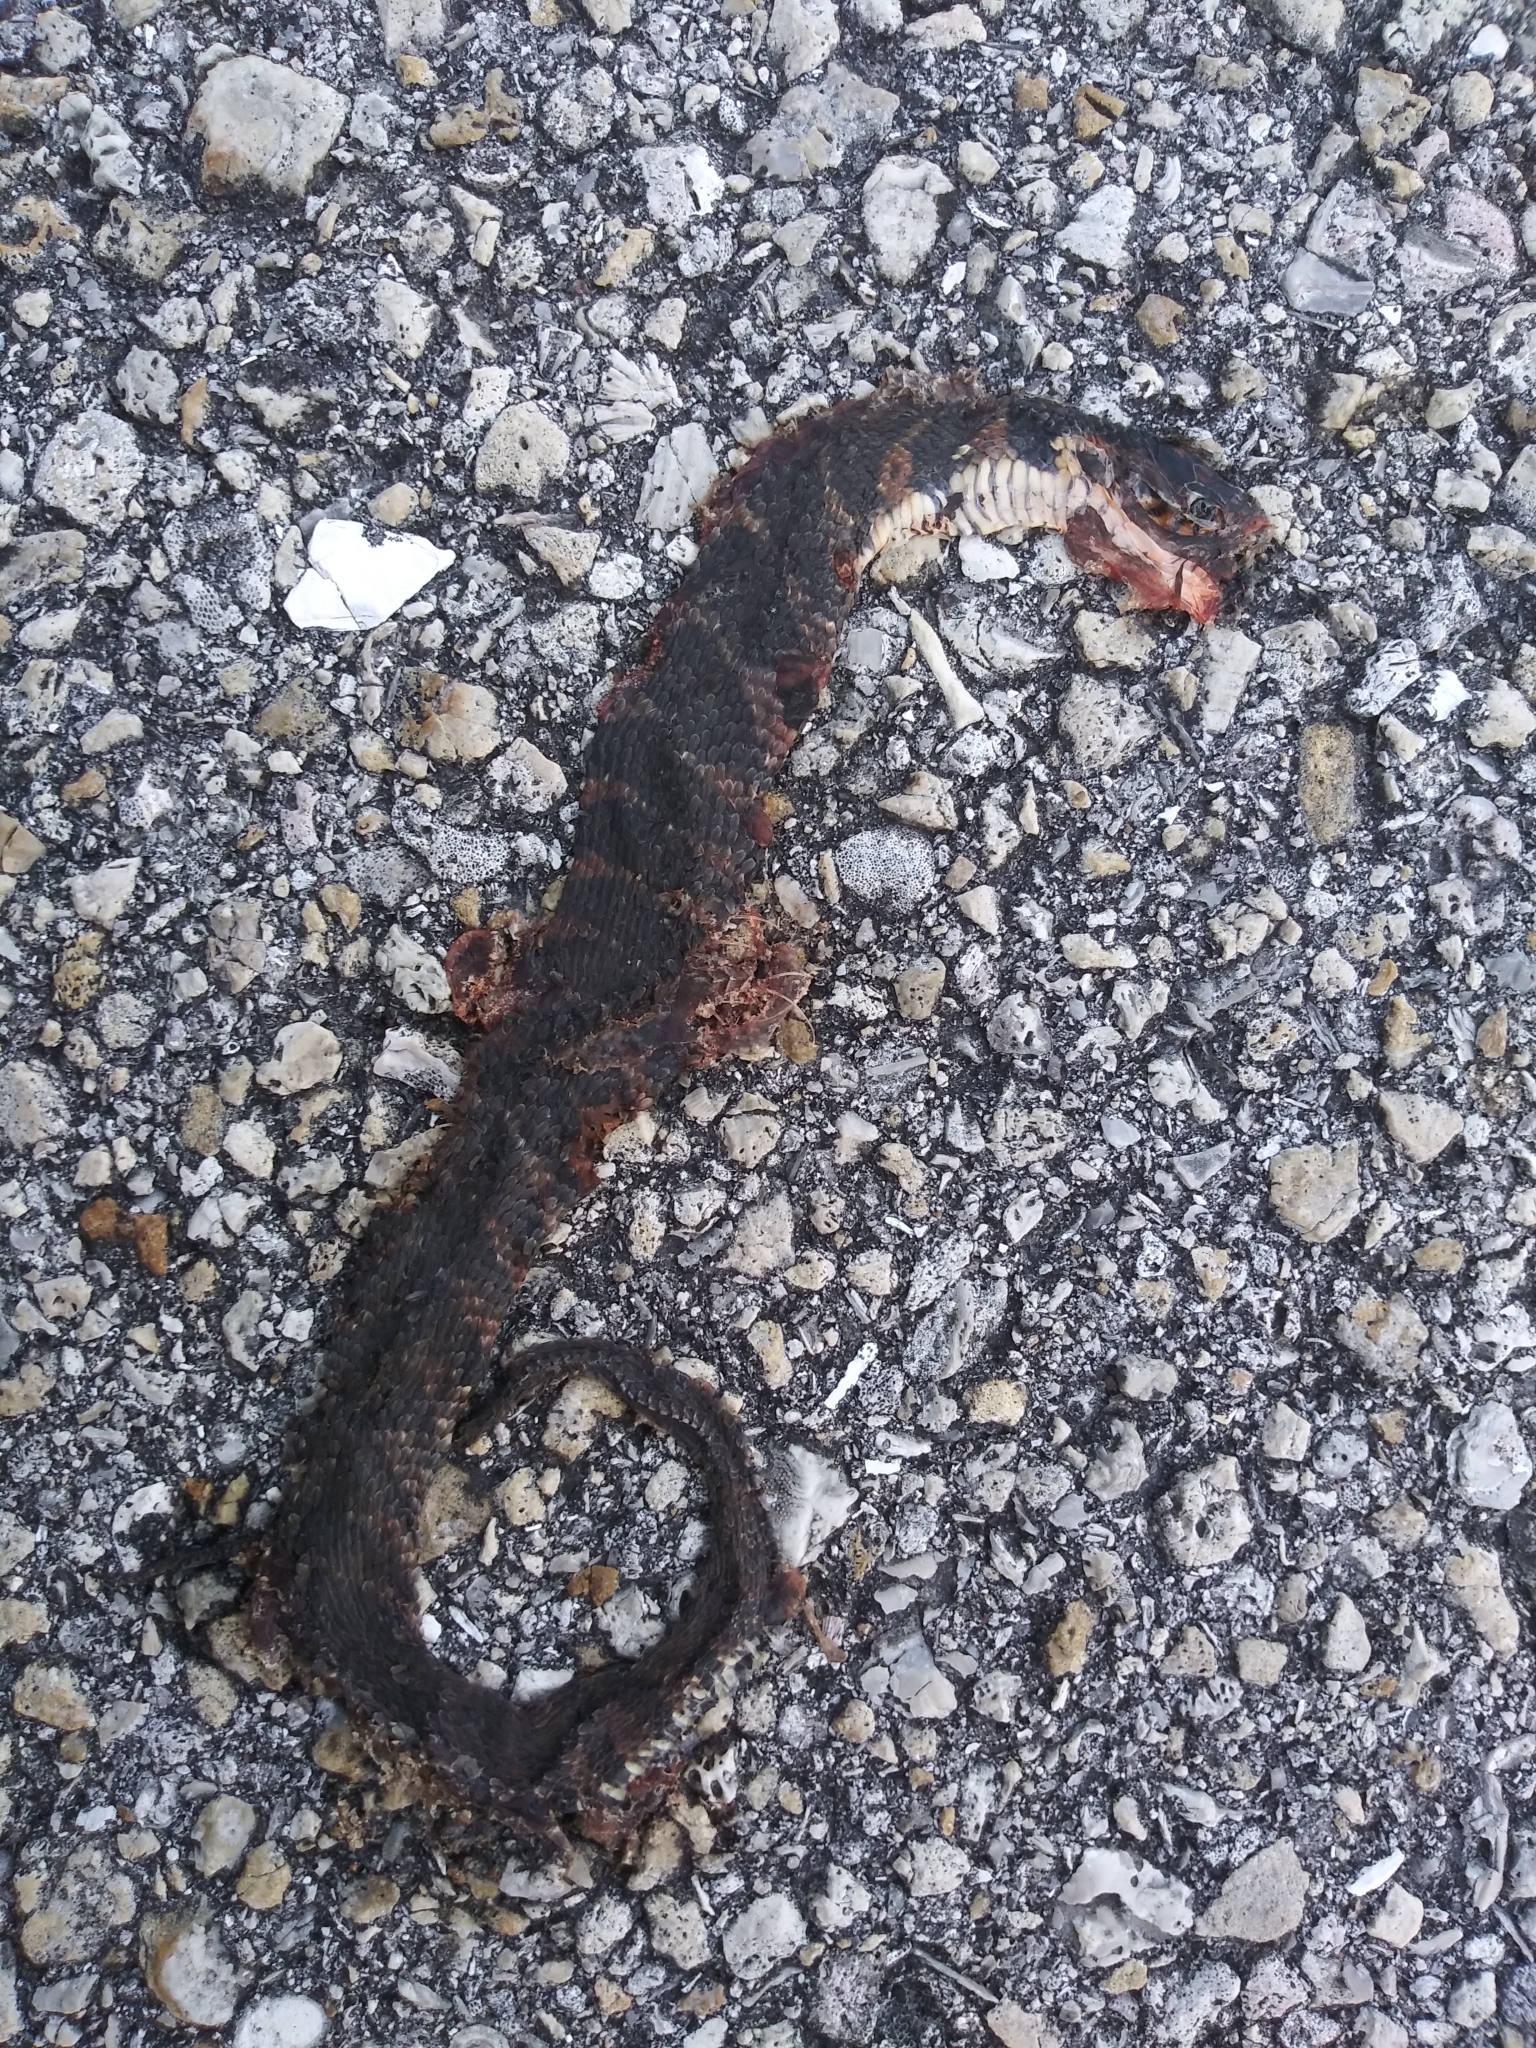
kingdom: Animalia
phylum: Chordata
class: Squamata
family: Colubridae
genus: Nerodia
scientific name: Nerodia fasciata
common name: Southern water snake
